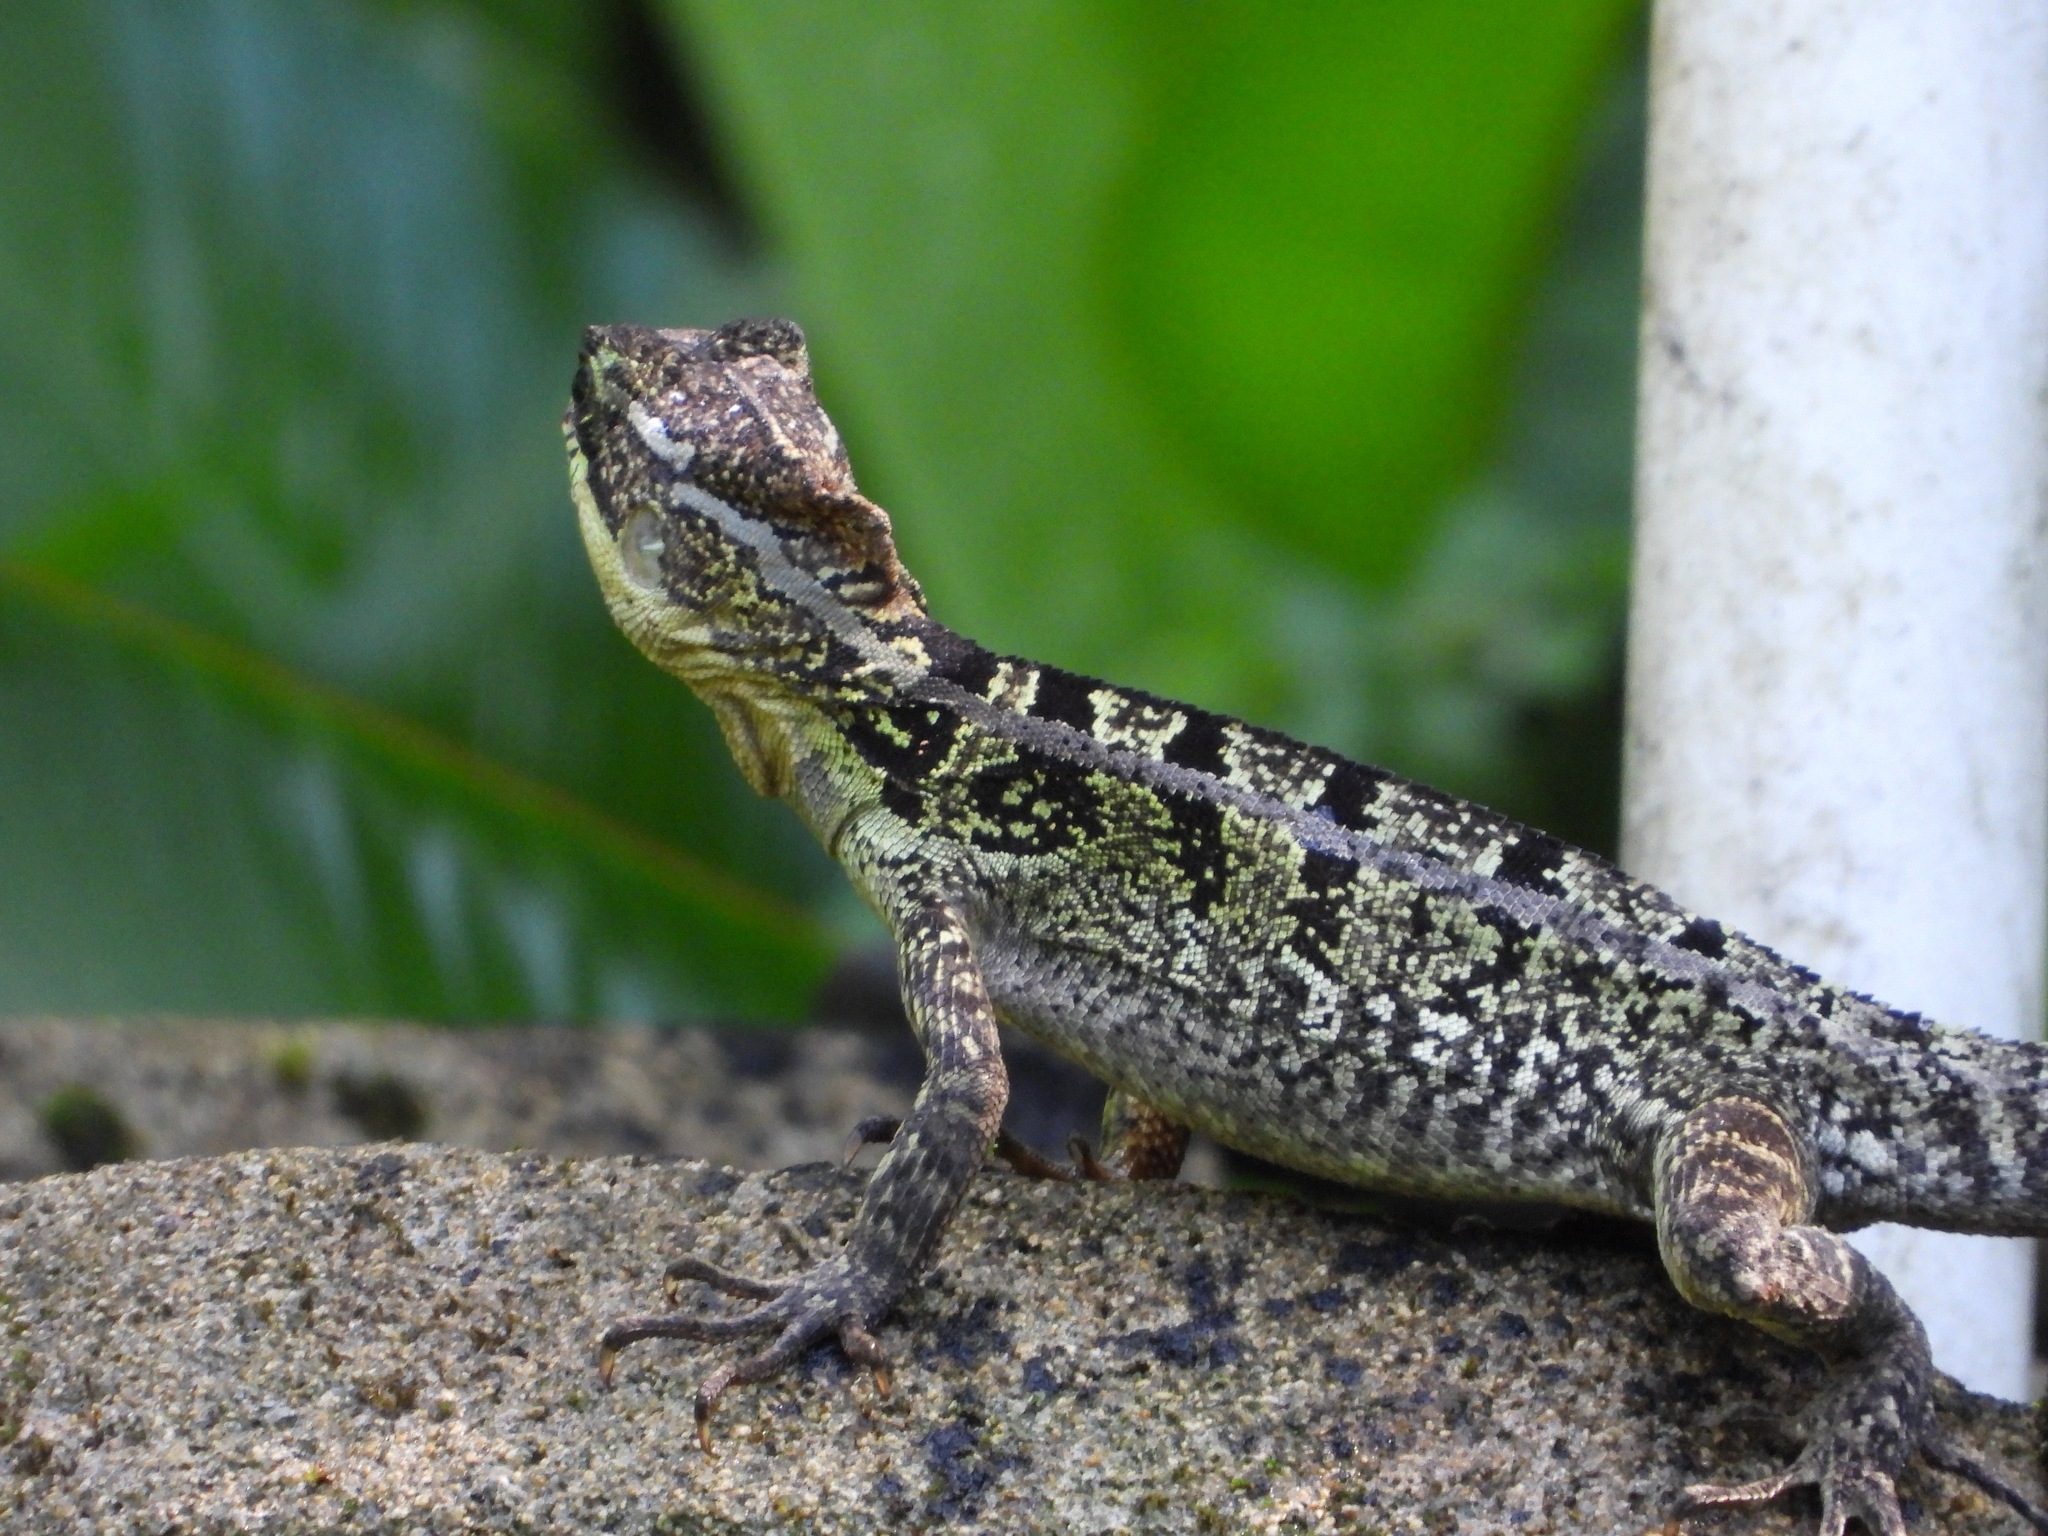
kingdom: Animalia
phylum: Chordata
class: Squamata
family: Corytophanidae
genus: Basiliscus
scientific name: Basiliscus vittatus
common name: Brown basilisk
